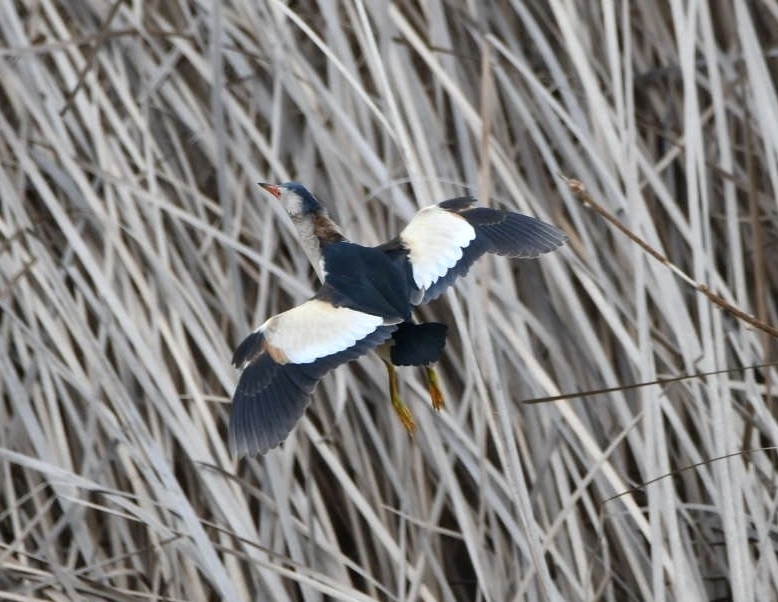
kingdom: Animalia
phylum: Chordata
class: Aves
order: Pelecaniformes
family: Ardeidae
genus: Ixobrychus
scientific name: Ixobrychus minutus
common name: Little bittern
